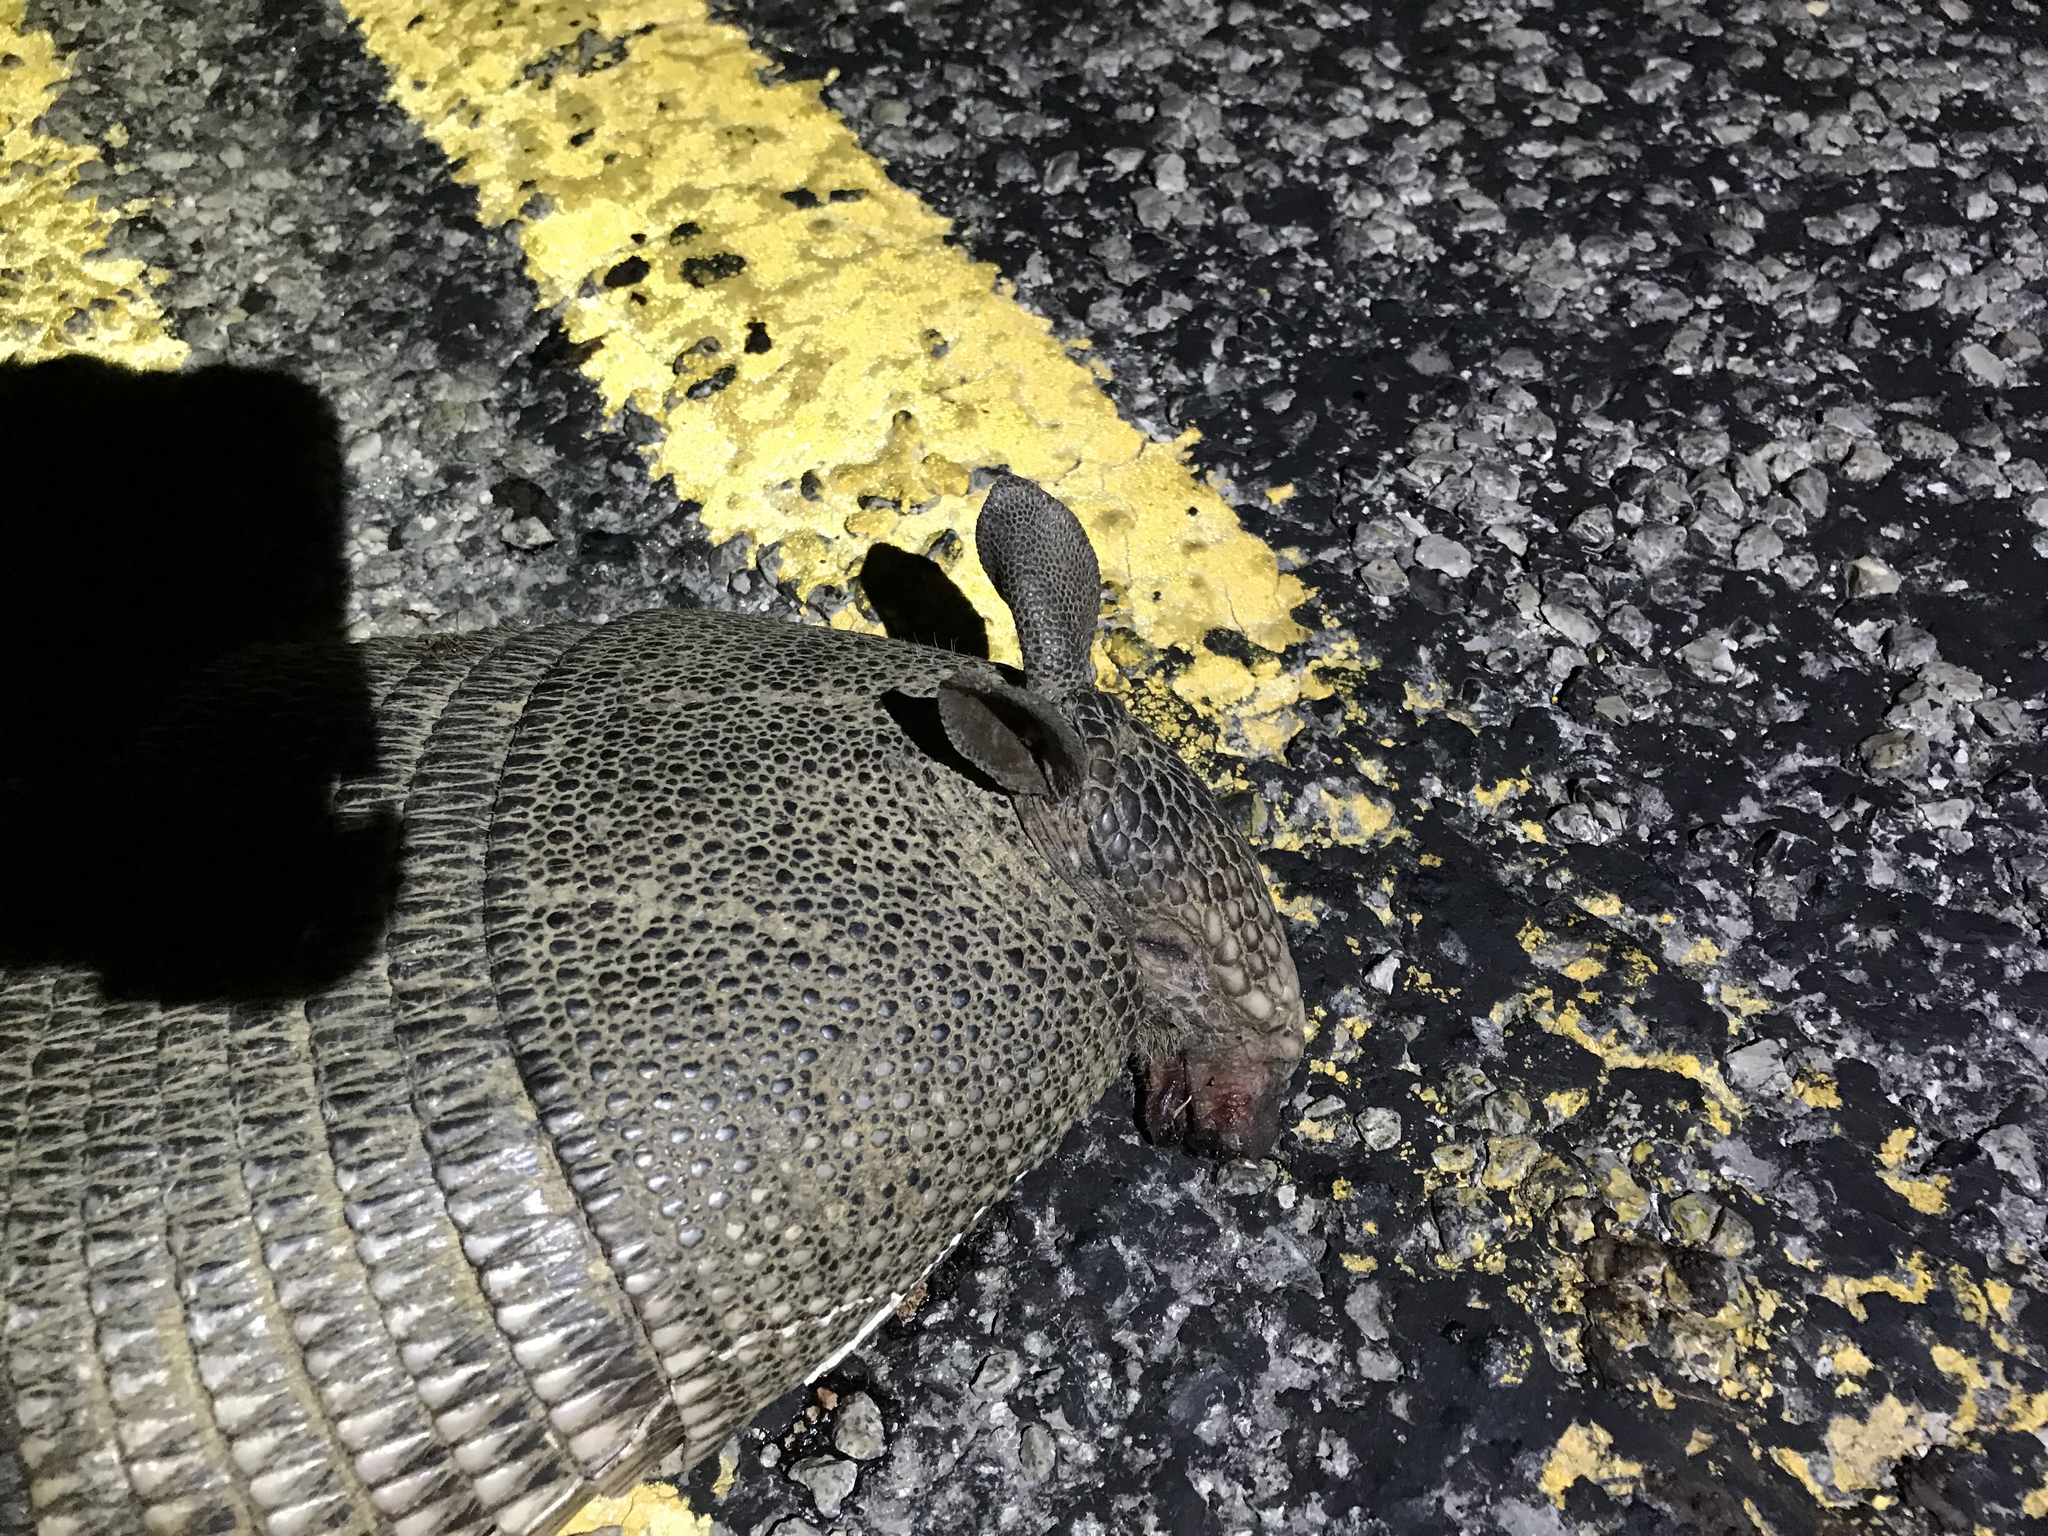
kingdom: Animalia
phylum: Chordata
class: Mammalia
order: Cingulata
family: Dasypodidae
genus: Dasypus
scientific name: Dasypus novemcinctus
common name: Nine-banded armadillo
